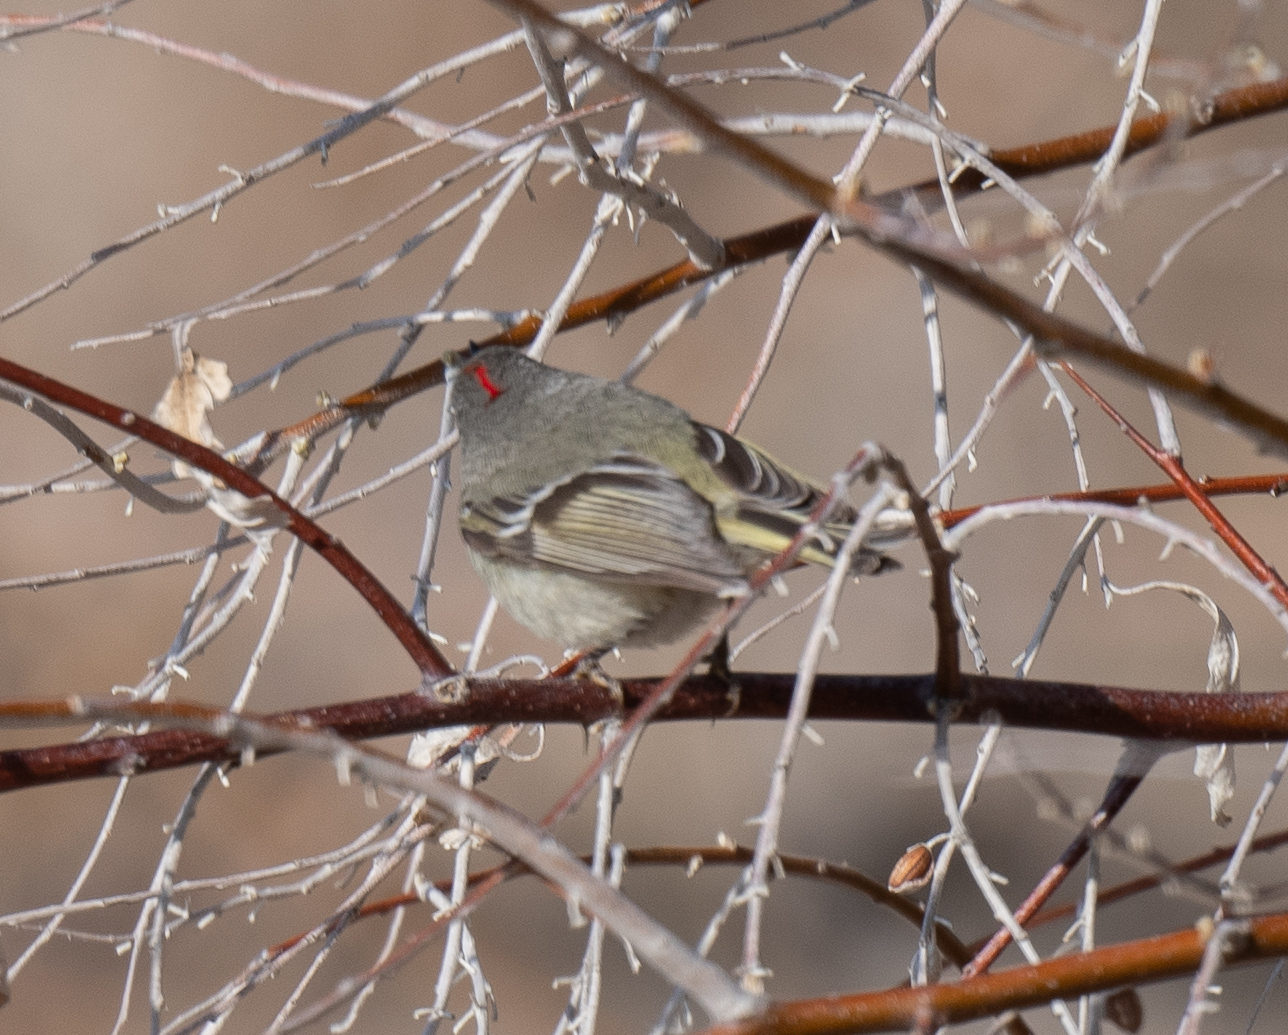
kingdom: Animalia
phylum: Chordata
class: Aves
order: Passeriformes
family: Regulidae
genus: Regulus
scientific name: Regulus calendula
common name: Ruby-crowned kinglet
